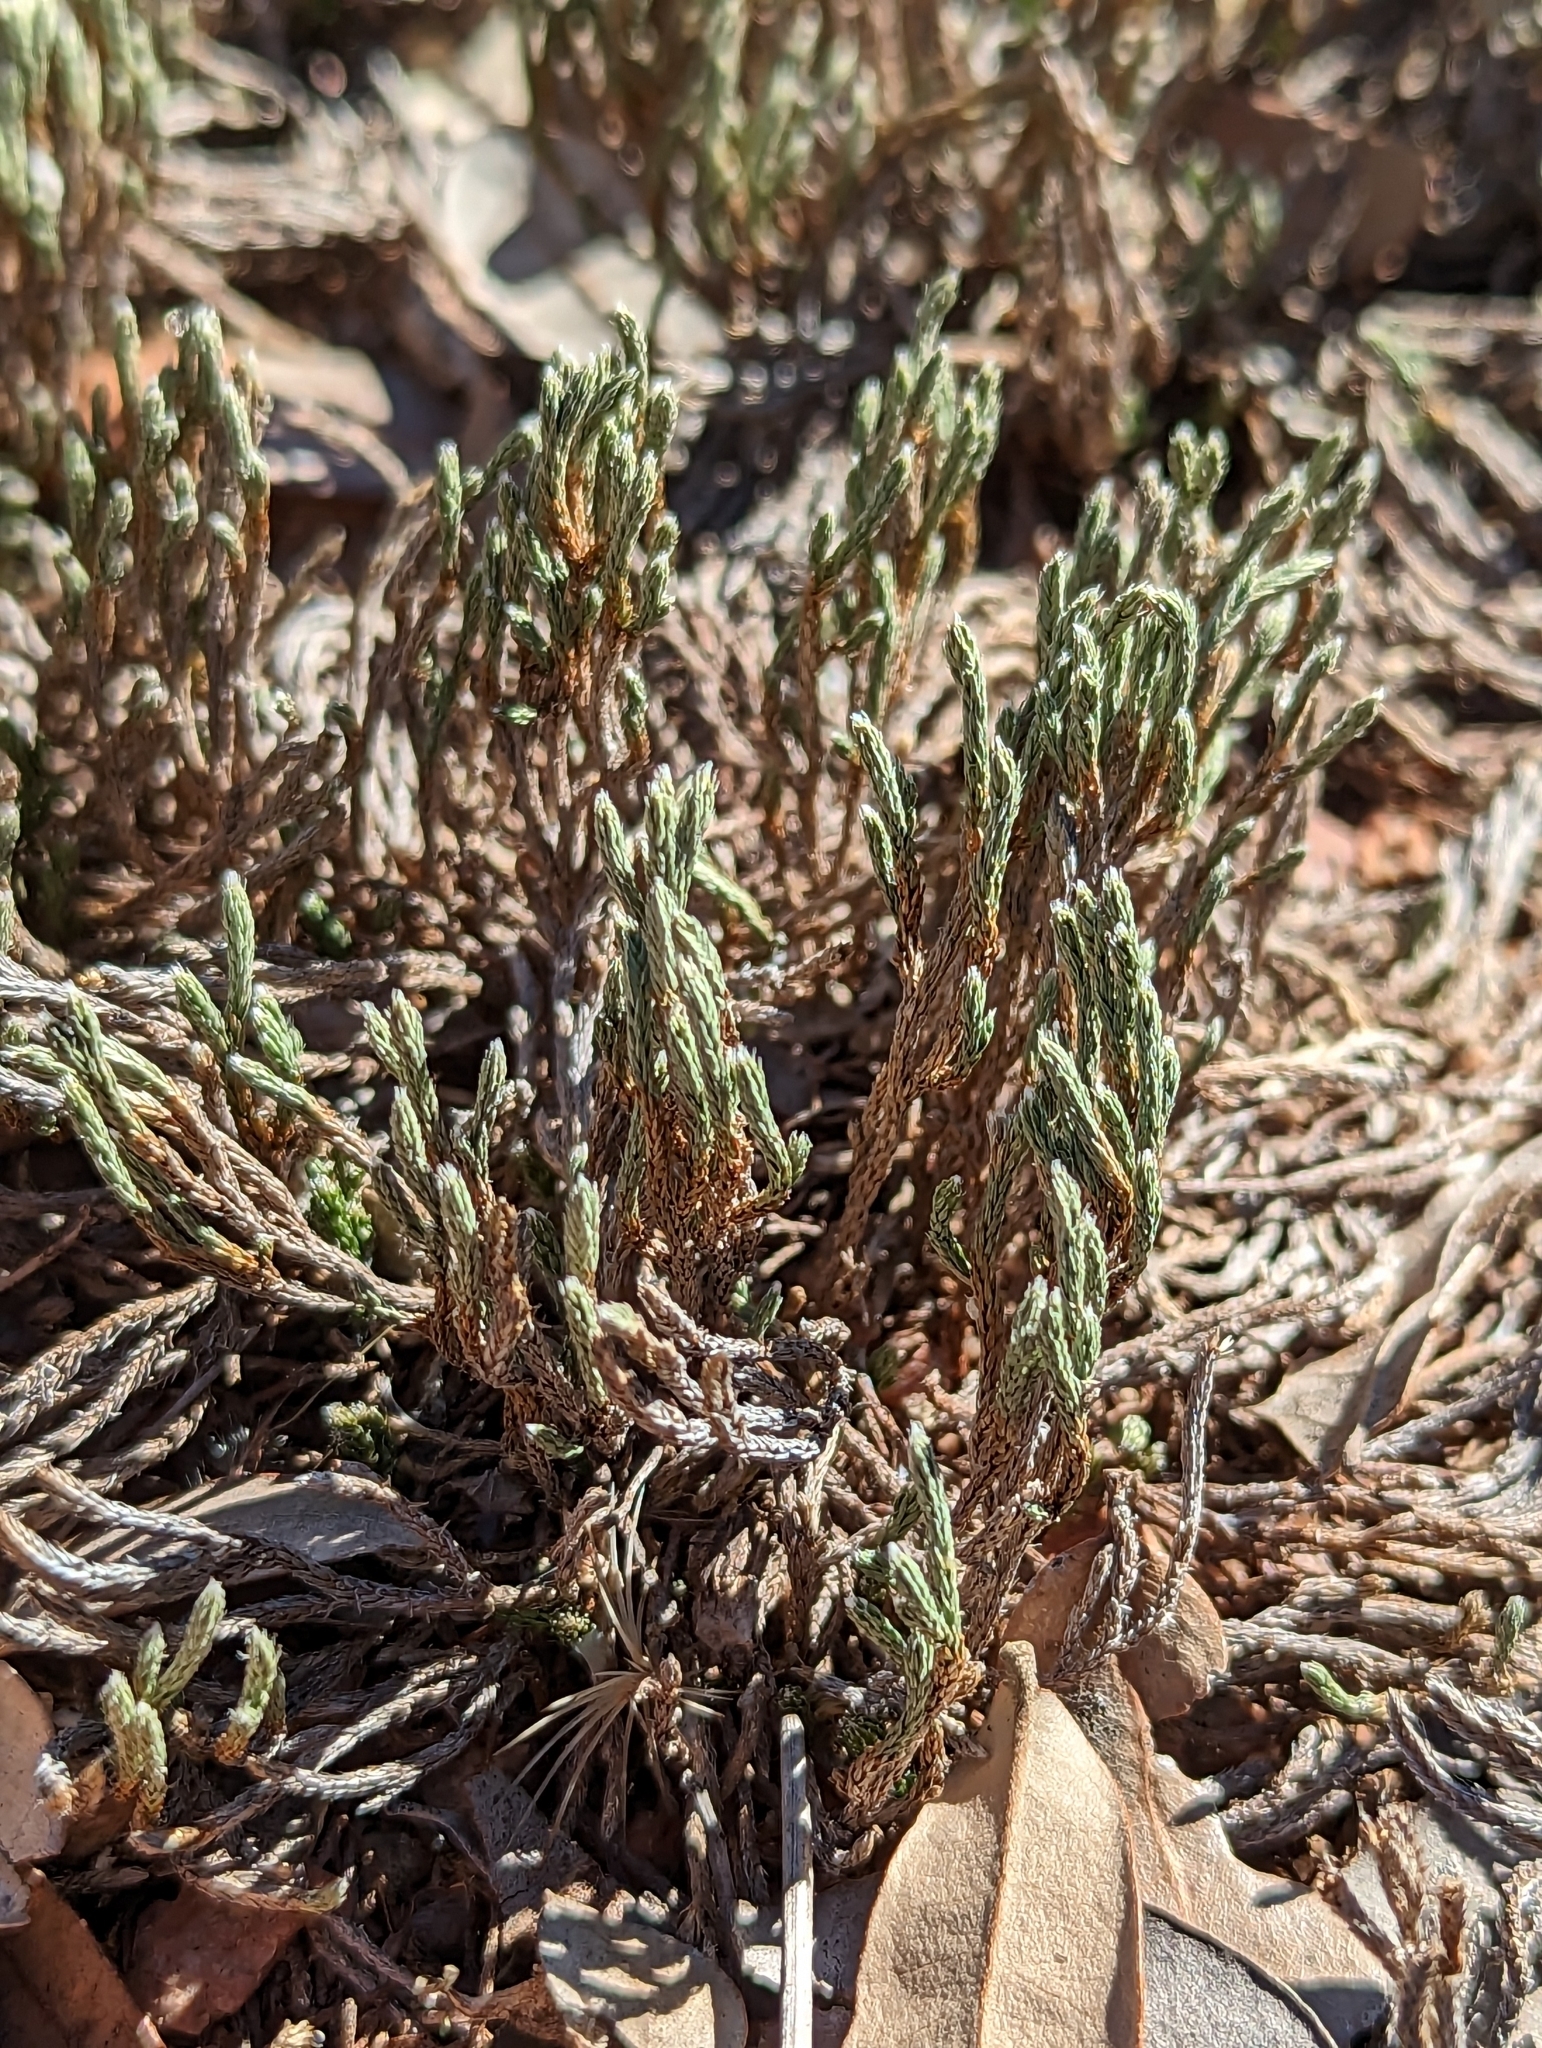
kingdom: Plantae
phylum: Tracheophyta
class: Lycopodiopsida
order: Selaginellales
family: Selaginellaceae
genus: Selaginella
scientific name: Selaginella corallina
